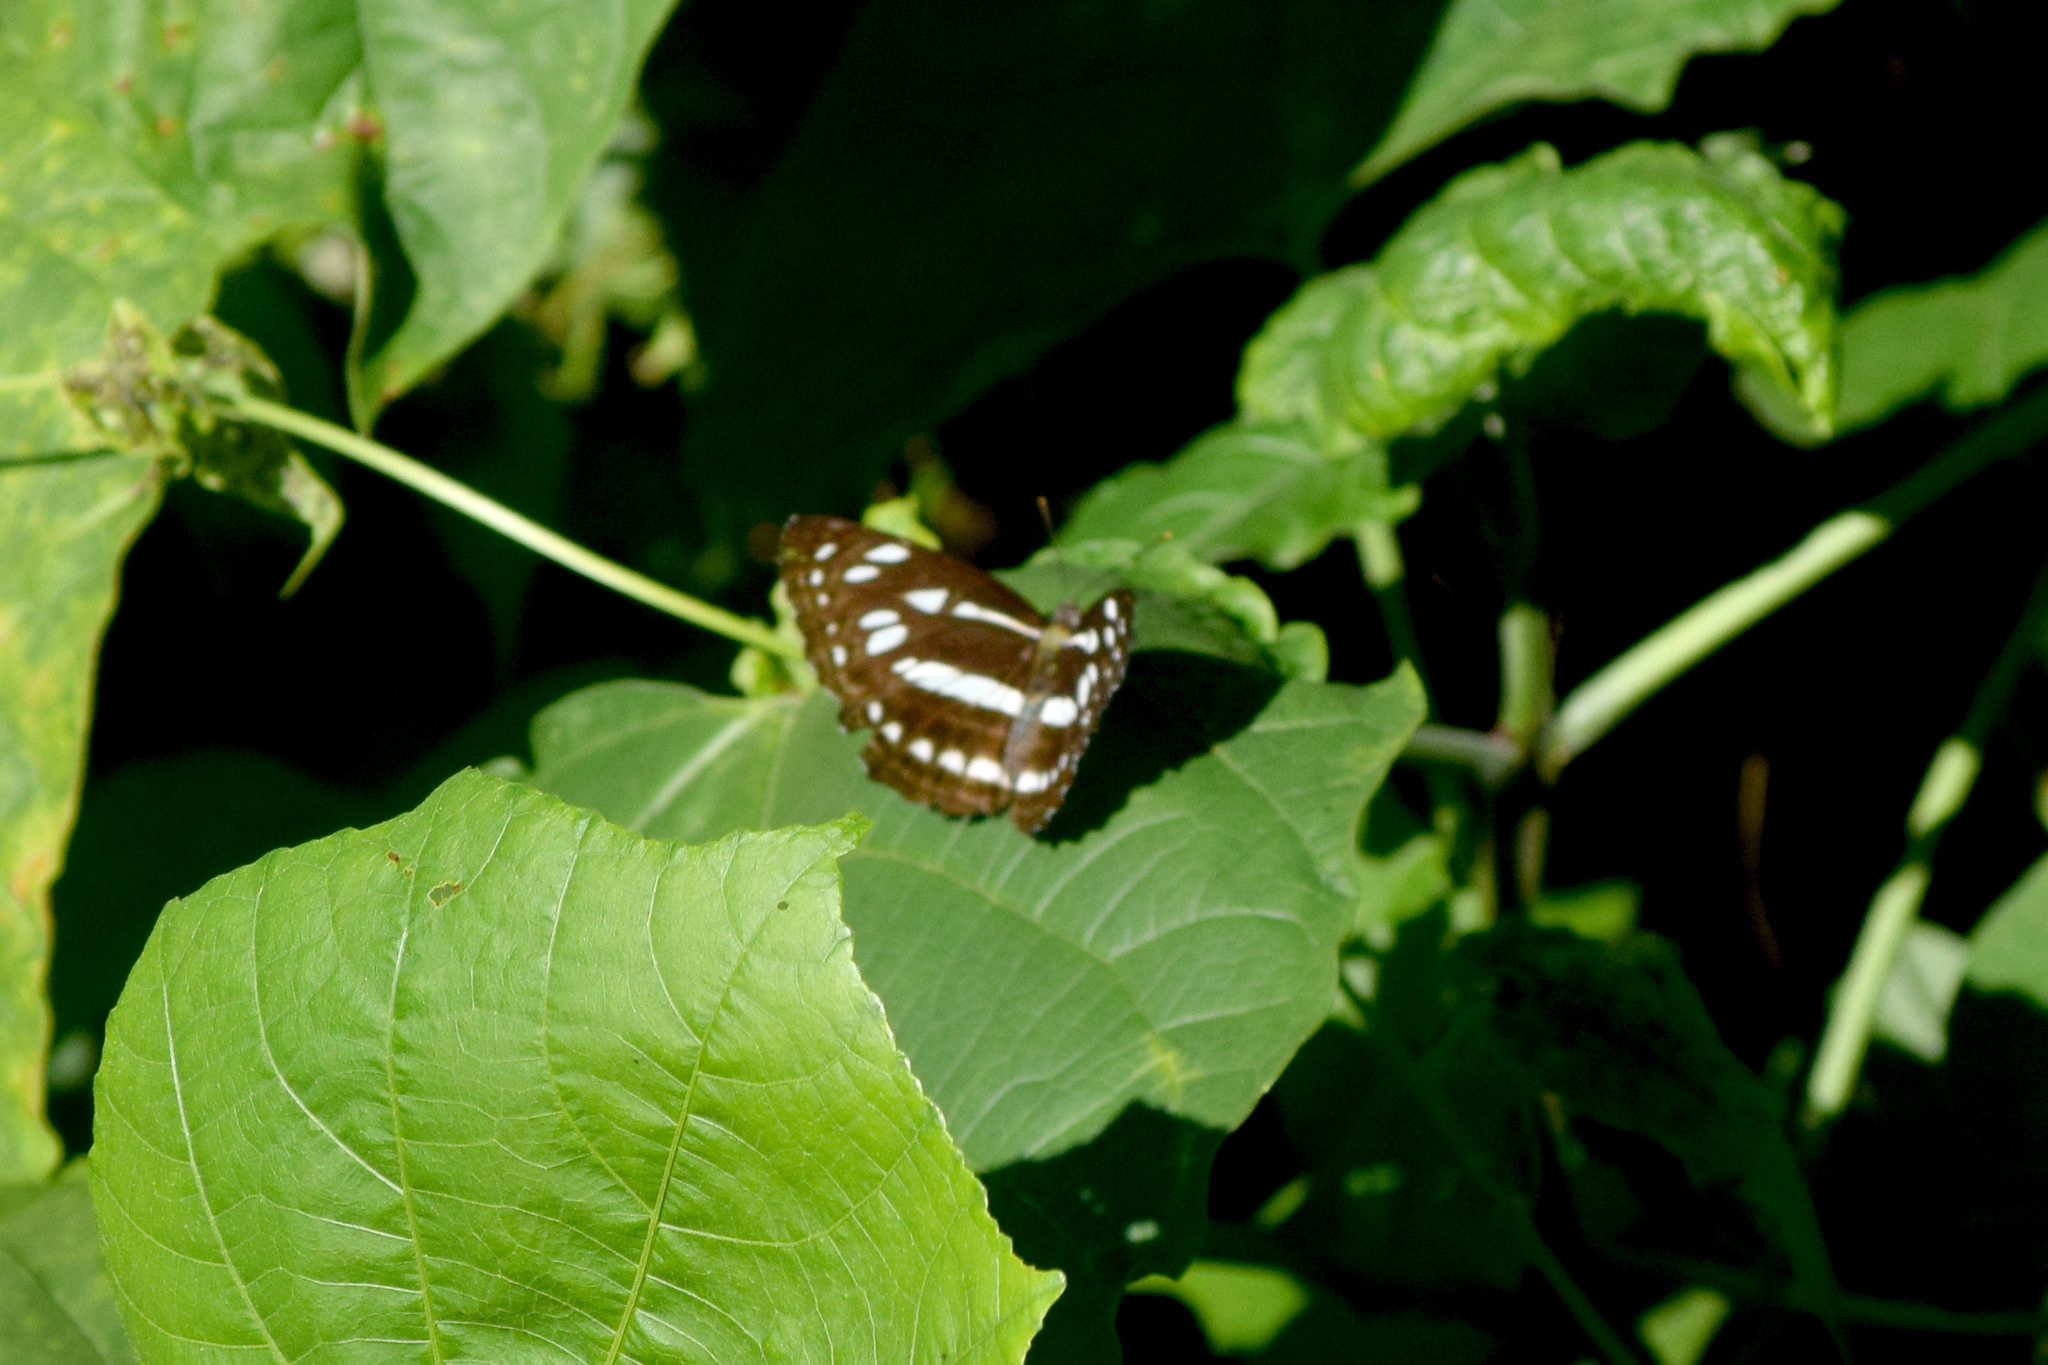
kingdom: Animalia
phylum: Arthropoda
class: Insecta
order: Lepidoptera
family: Nymphalidae
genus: Phaedyma
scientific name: Phaedyma columella
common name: Short banded sailer
